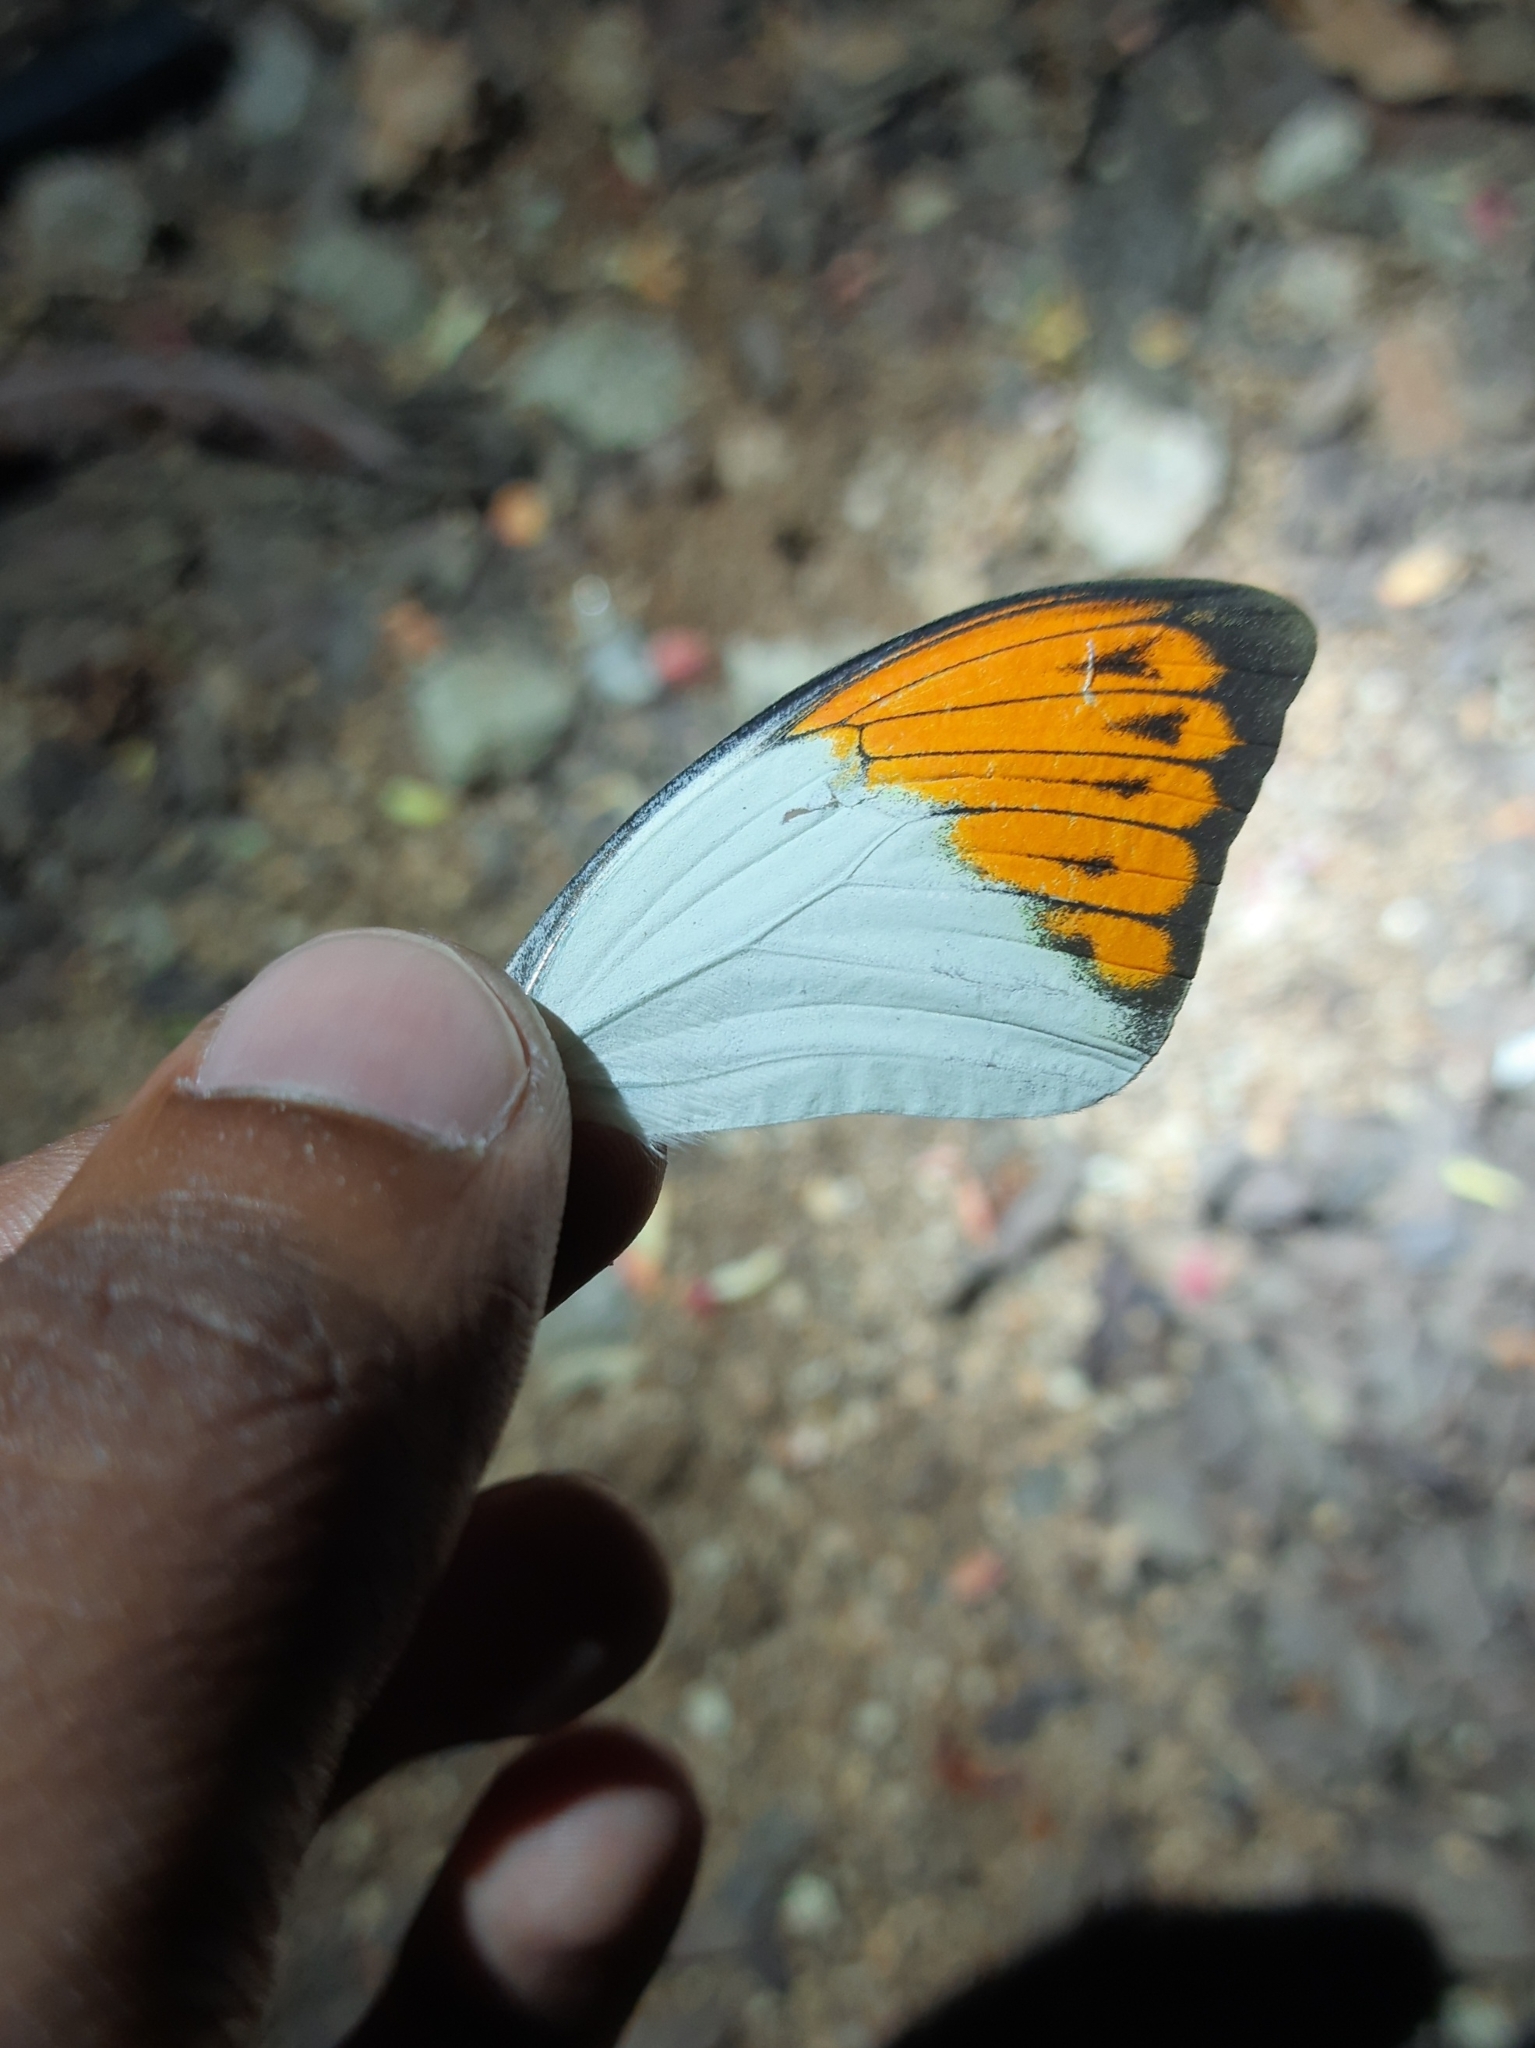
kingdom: Animalia
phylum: Arthropoda
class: Insecta
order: Lepidoptera
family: Pieridae
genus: Hebomoia
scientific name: Hebomoia glaucippe
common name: Great orange tip
